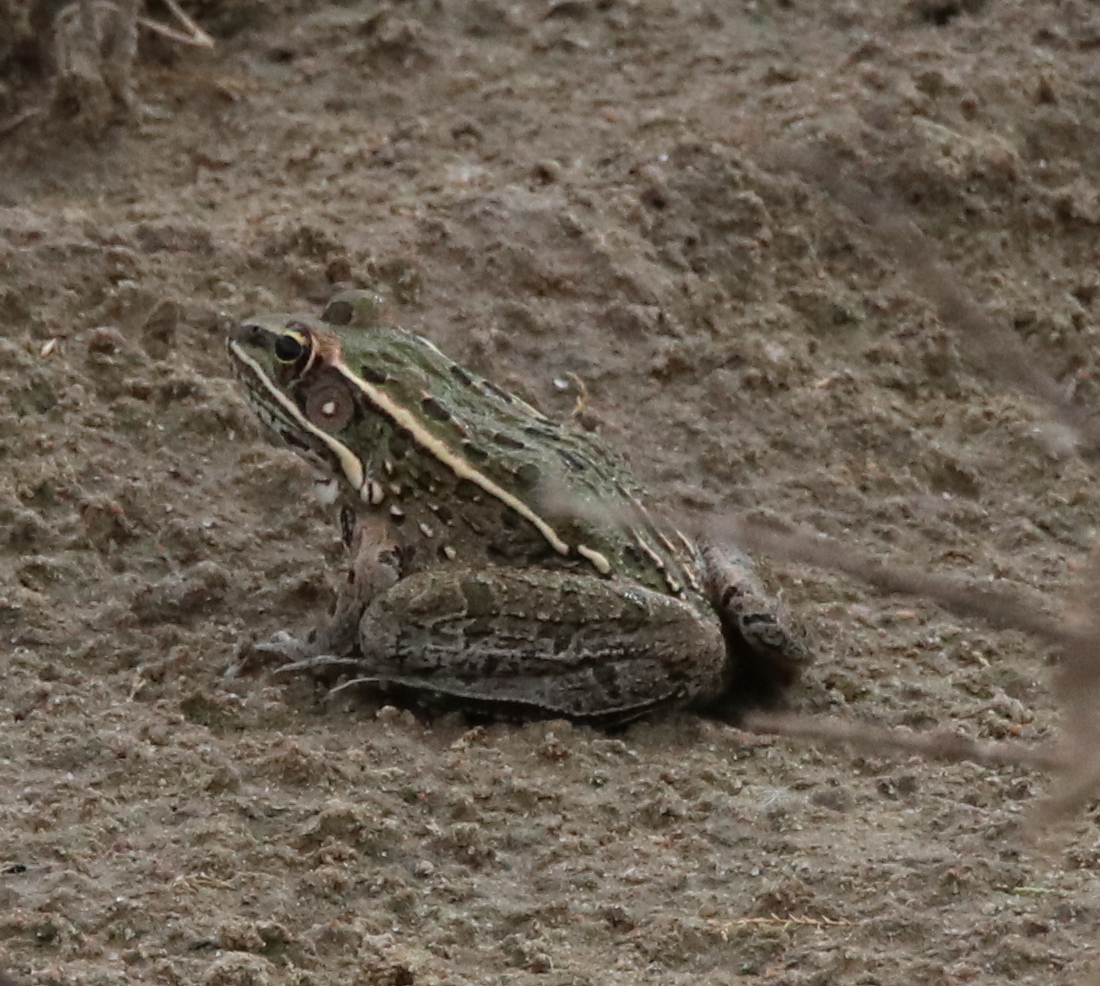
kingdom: Animalia
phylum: Chordata
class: Amphibia
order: Anura
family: Ranidae
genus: Lithobates
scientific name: Lithobates blairi
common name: Plains leopard frog
